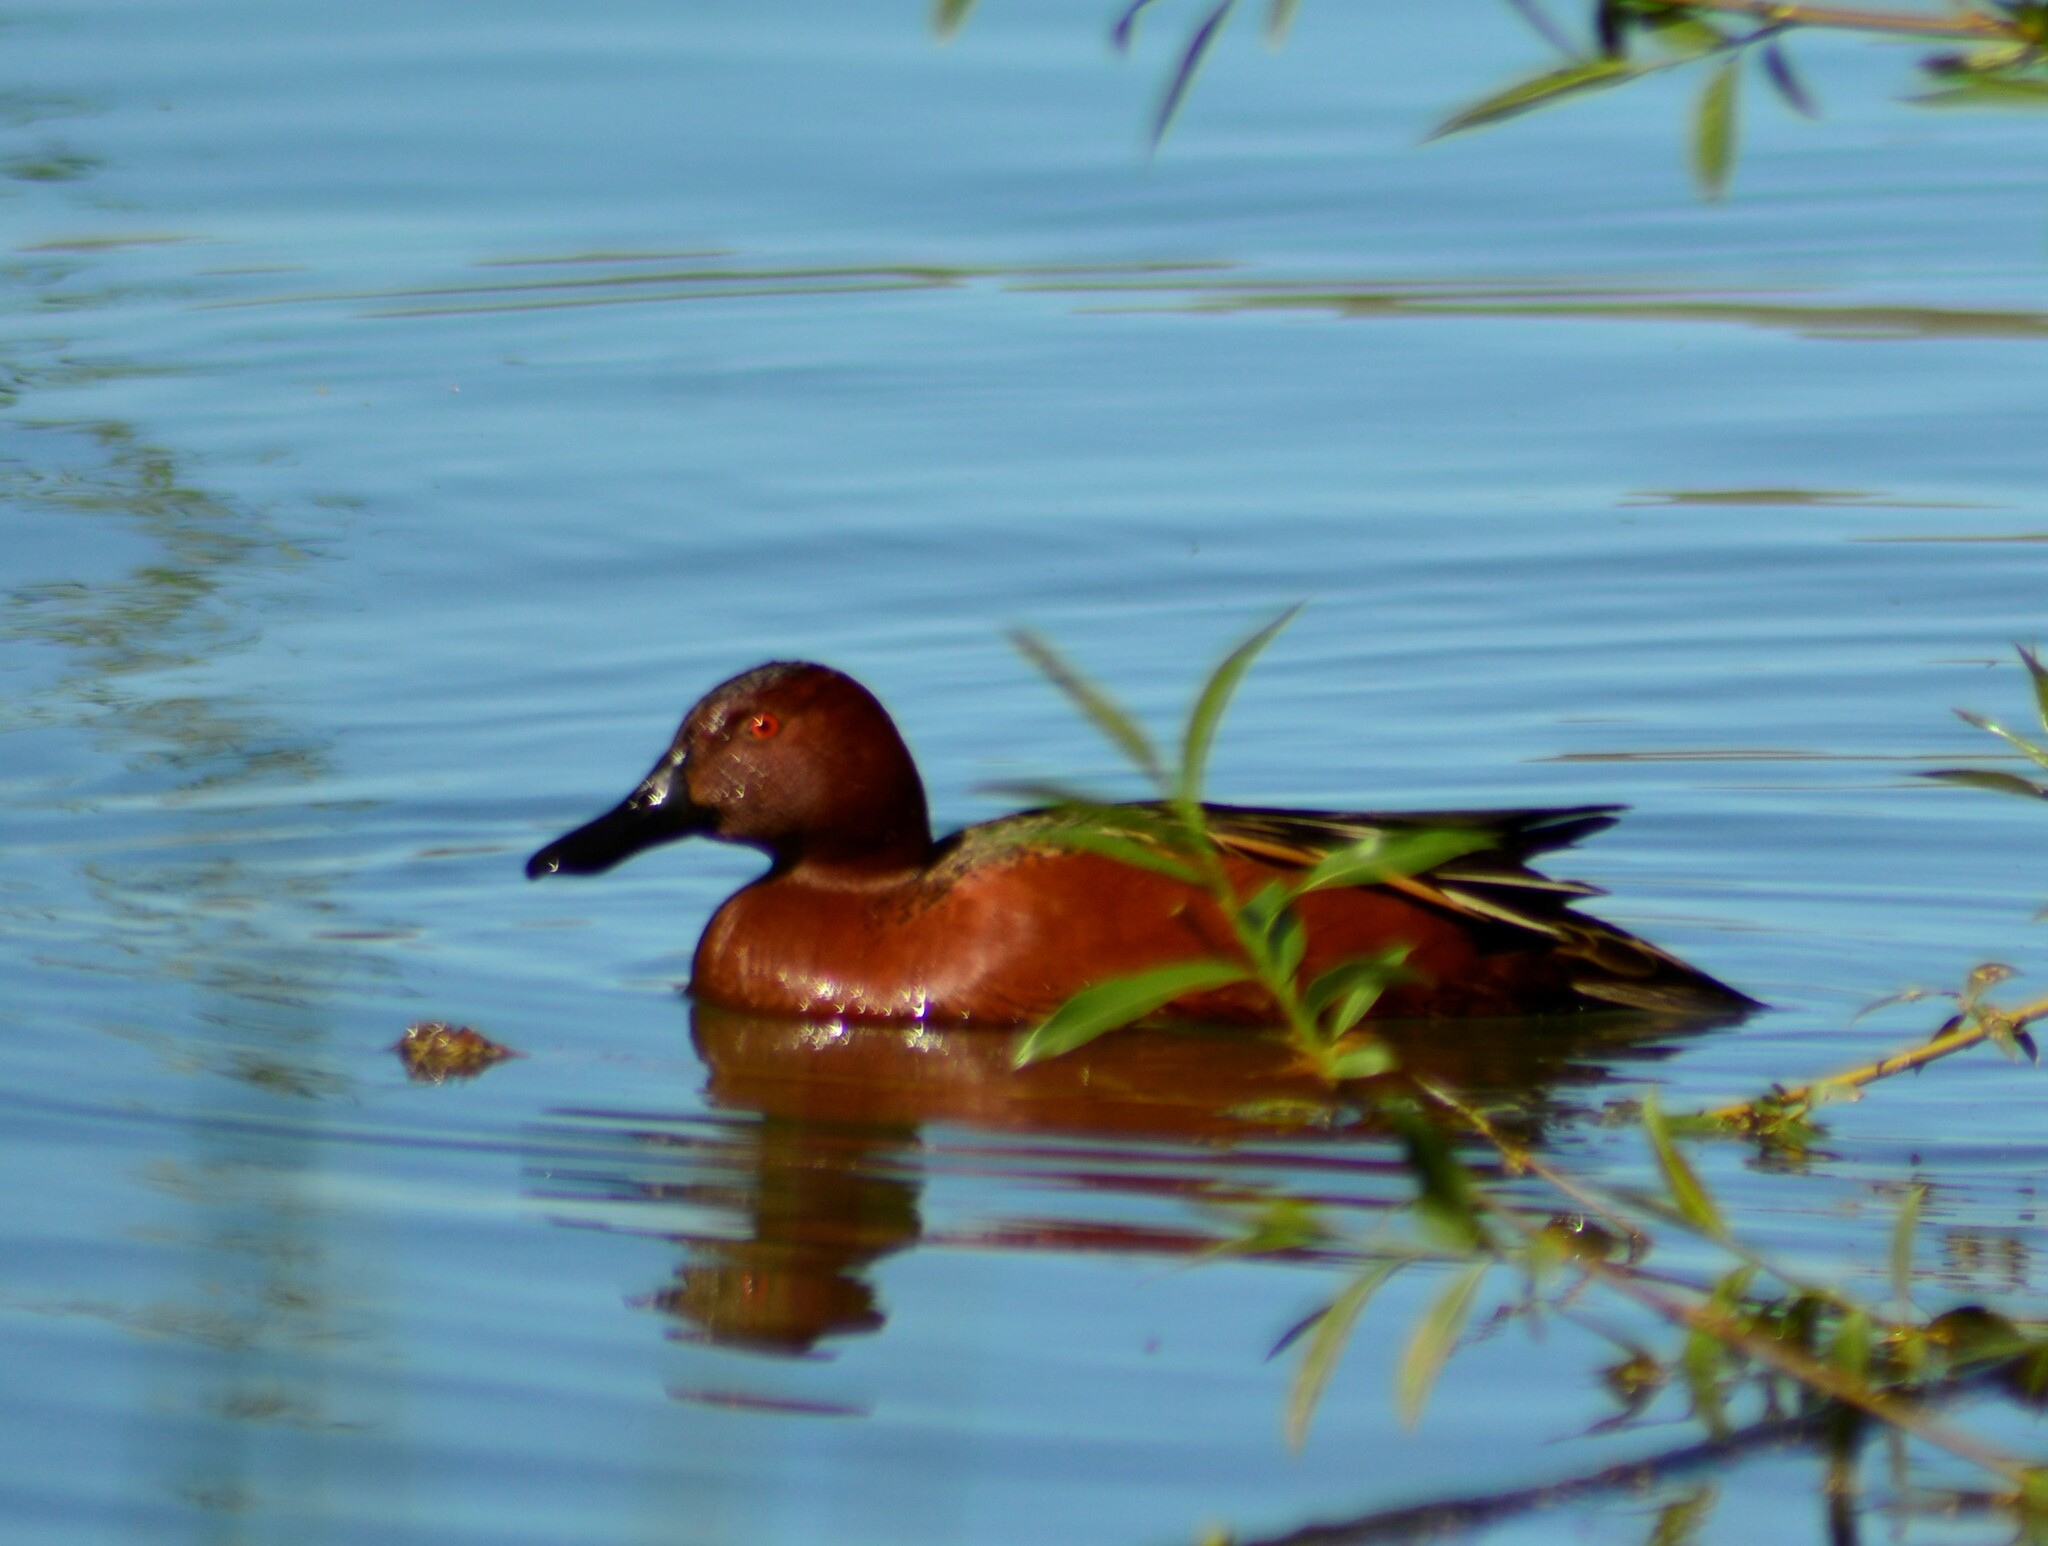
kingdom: Animalia
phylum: Chordata
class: Aves
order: Anseriformes
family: Anatidae
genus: Spatula
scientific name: Spatula cyanoptera
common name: Cinnamon teal
